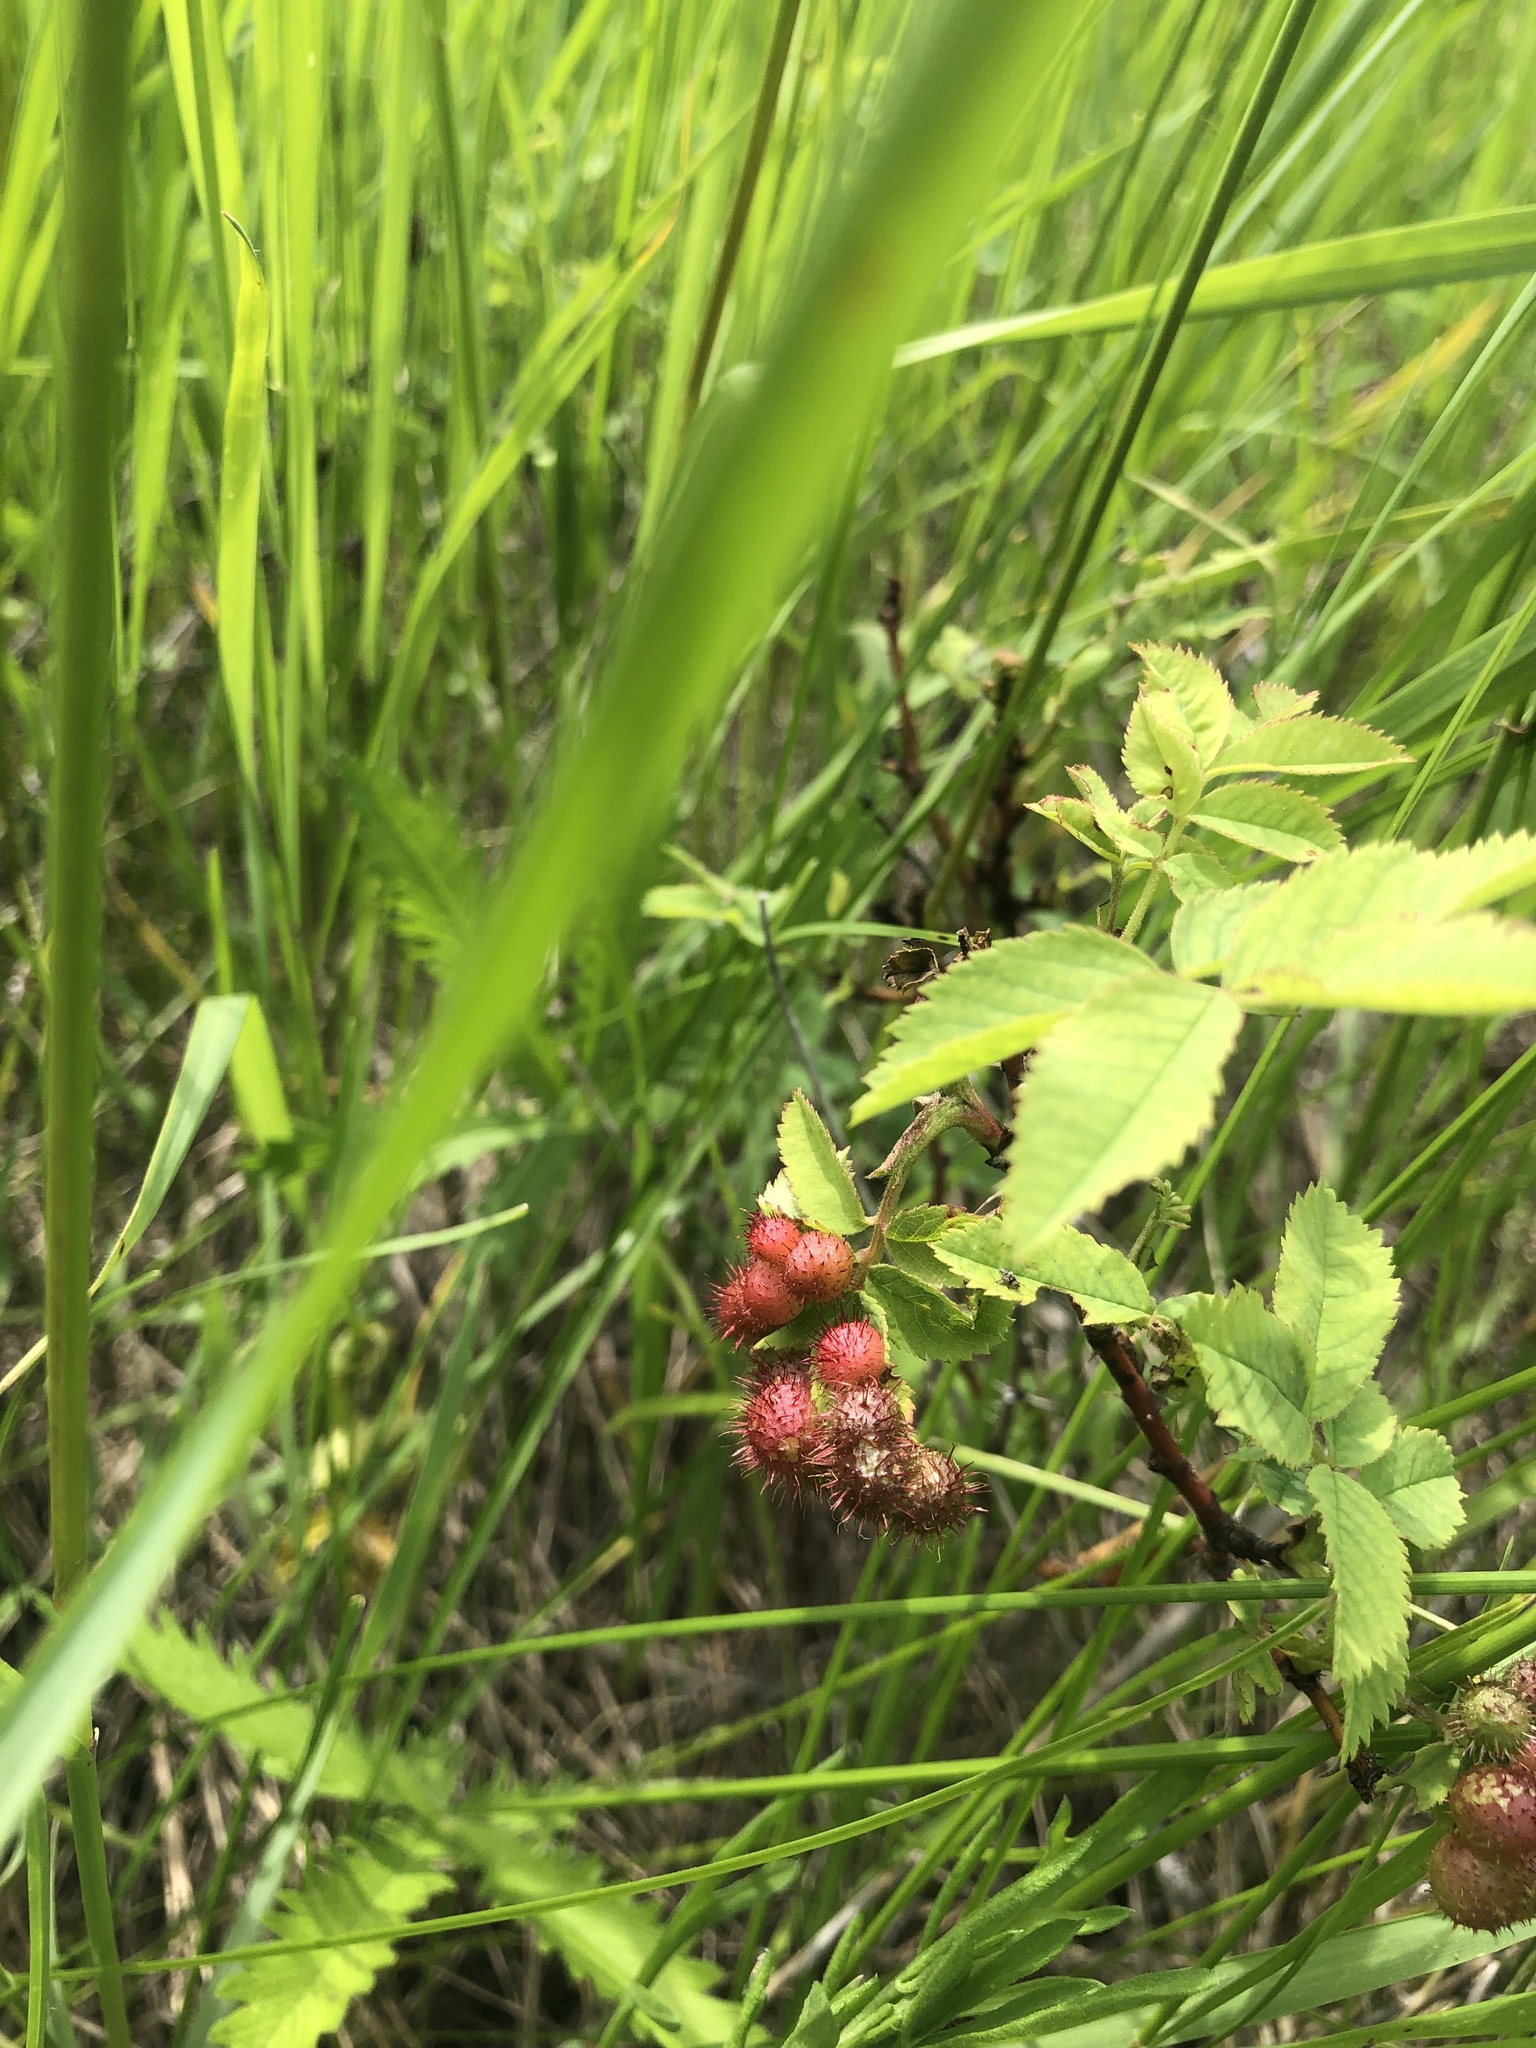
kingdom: Animalia
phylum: Arthropoda
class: Insecta
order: Hymenoptera
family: Cynipidae
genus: Diplolepis
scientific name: Diplolepis polita
